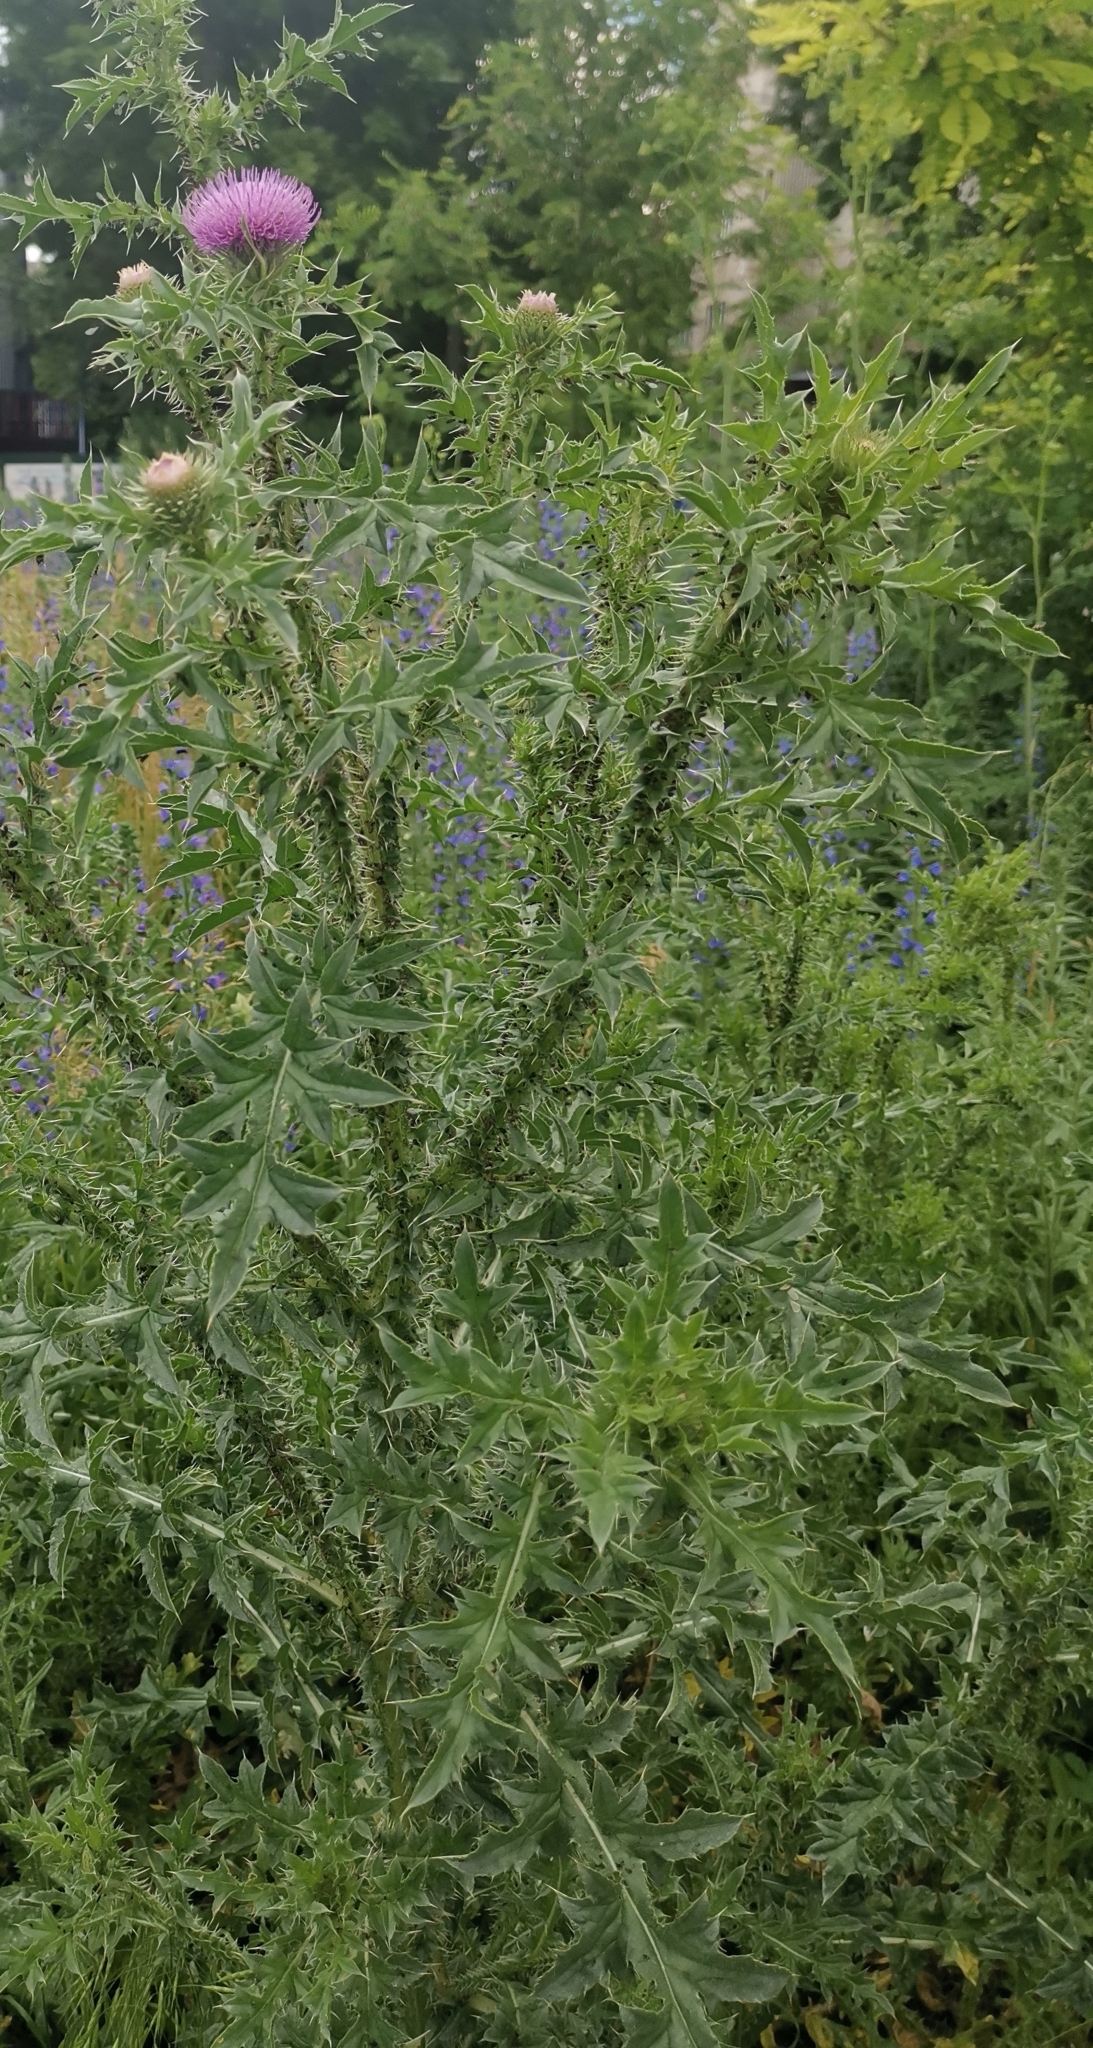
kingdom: Plantae
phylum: Tracheophyta
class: Magnoliopsida
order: Asterales
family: Asteraceae
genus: Carduus
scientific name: Carduus acanthoides
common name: Plumeless thistle
